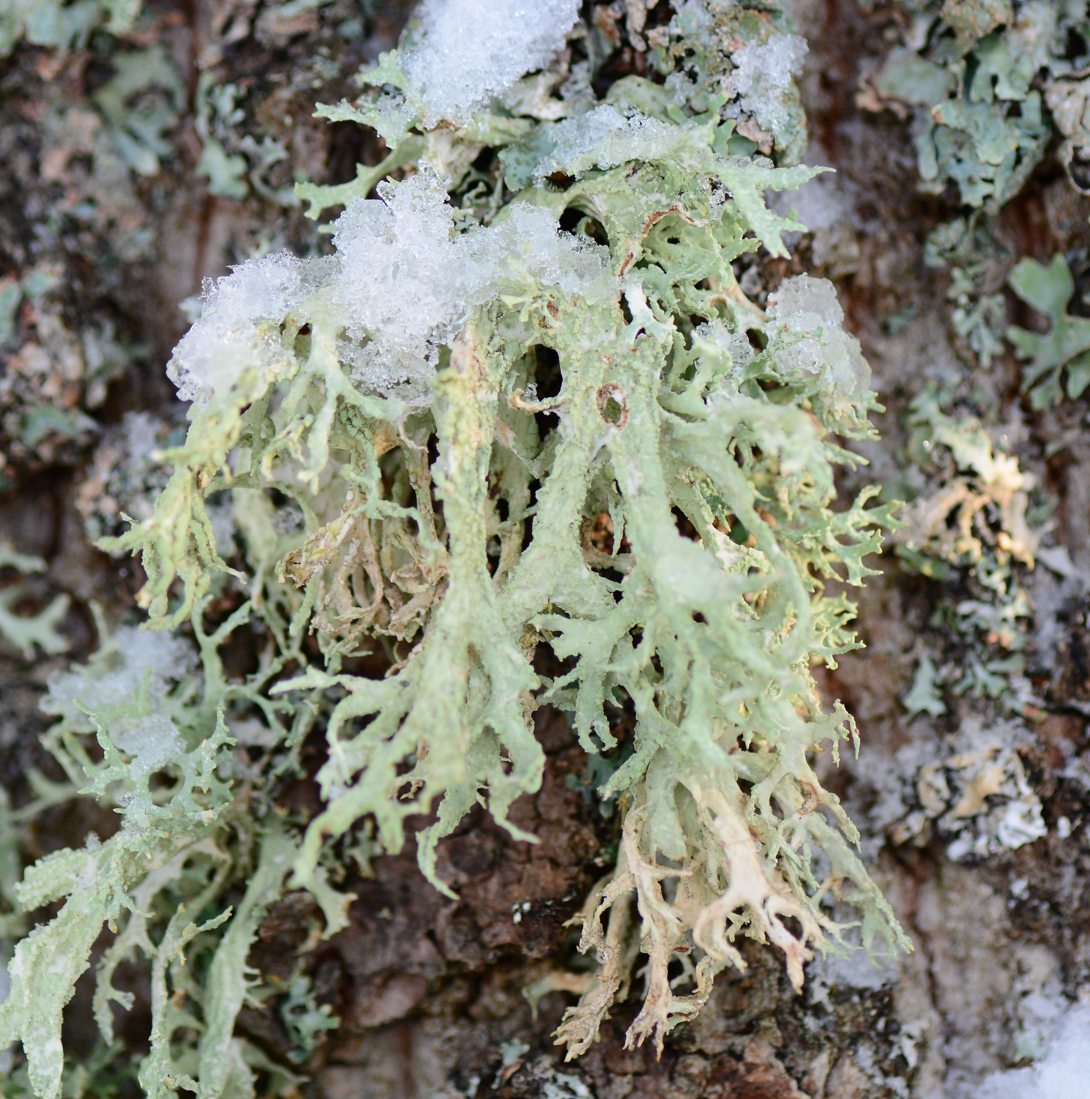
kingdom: Fungi
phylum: Ascomycota
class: Lecanoromycetes
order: Lecanorales
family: Parmeliaceae
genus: Evernia
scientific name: Evernia prunastri
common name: Oak moss
